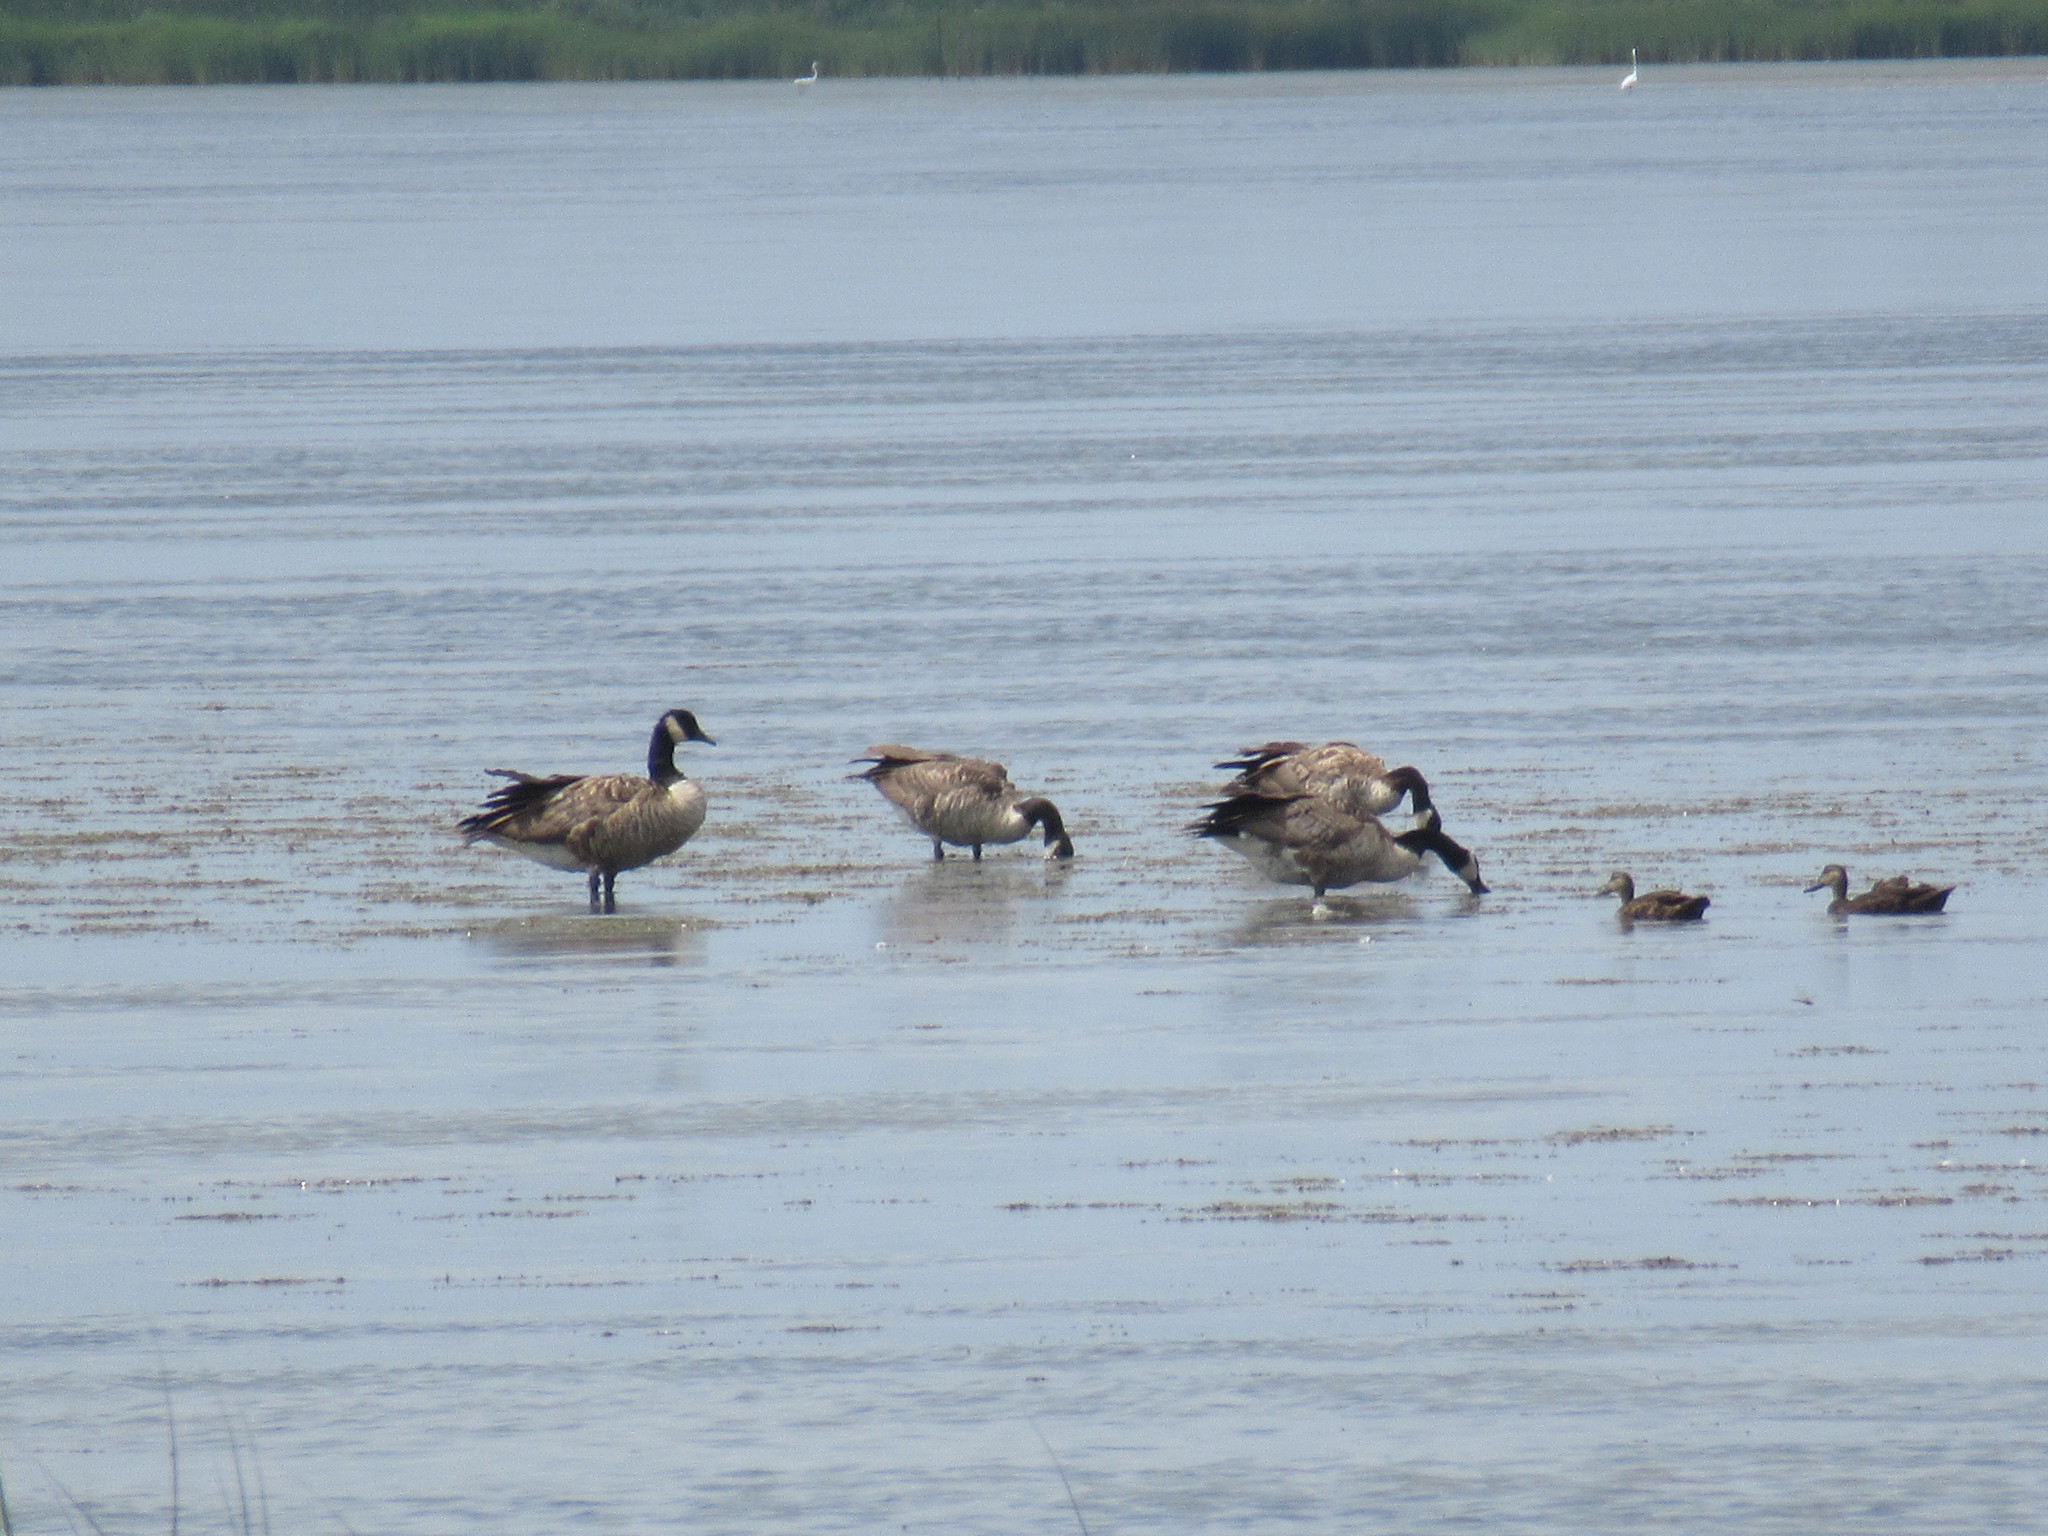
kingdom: Animalia
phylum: Chordata
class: Aves
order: Anseriformes
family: Anatidae
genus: Branta
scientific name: Branta canadensis
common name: Canada goose
